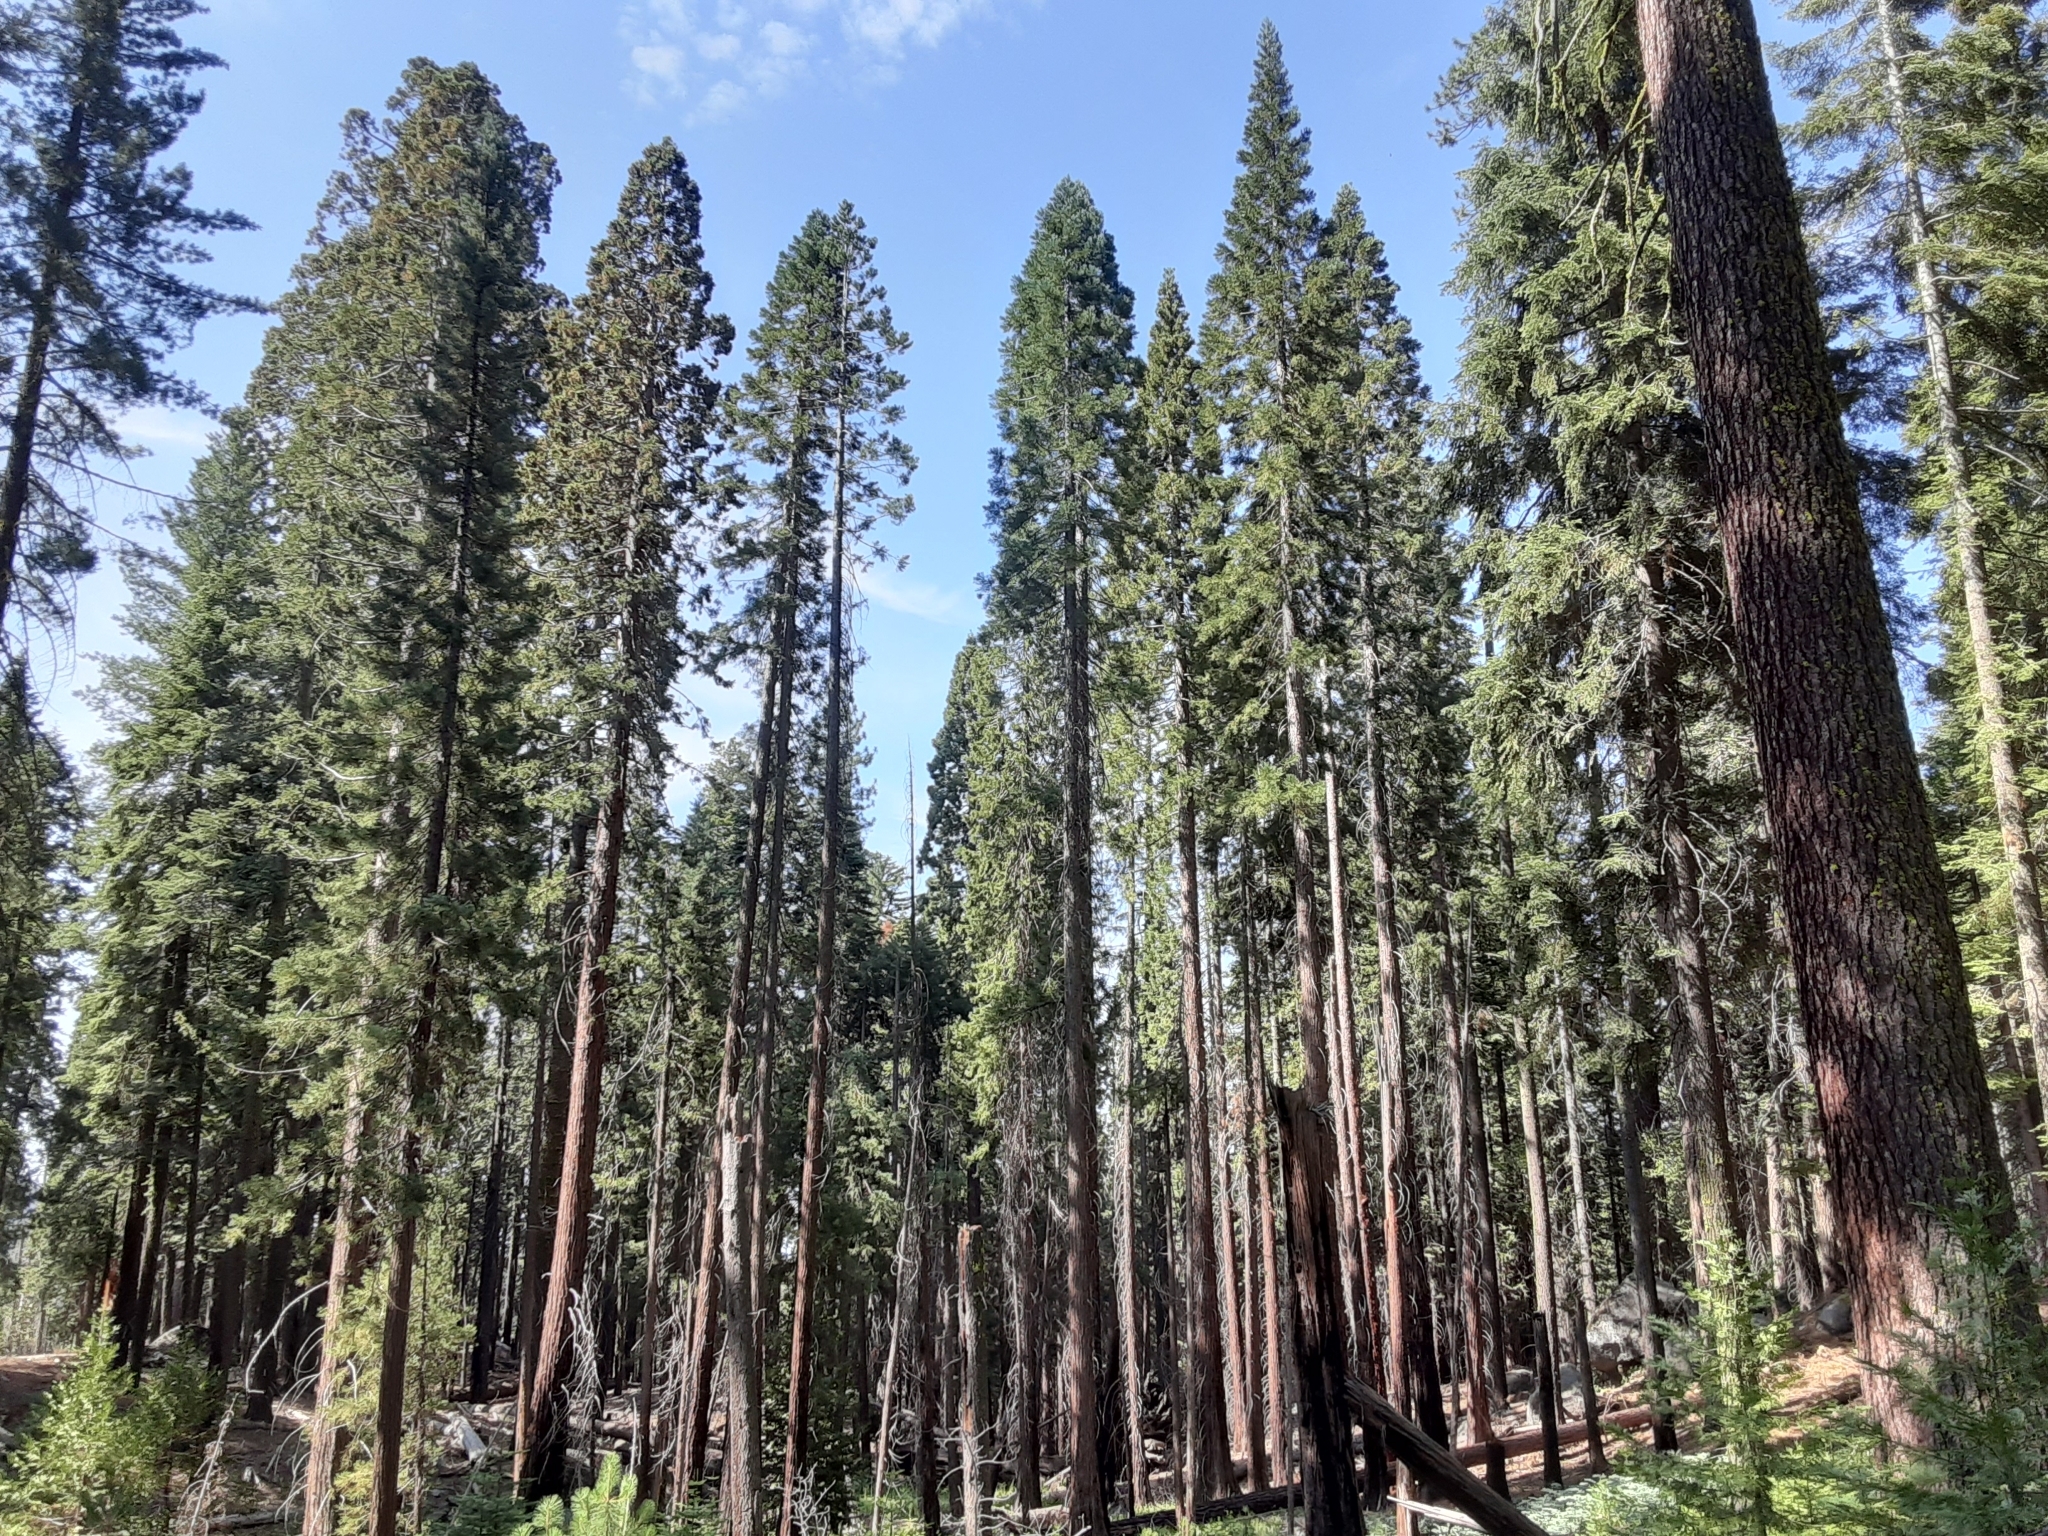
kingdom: Plantae
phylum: Tracheophyta
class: Pinopsida
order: Pinales
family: Cupressaceae
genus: Sequoiadendron
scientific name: Sequoiadendron giganteum
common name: Wellingtonia
